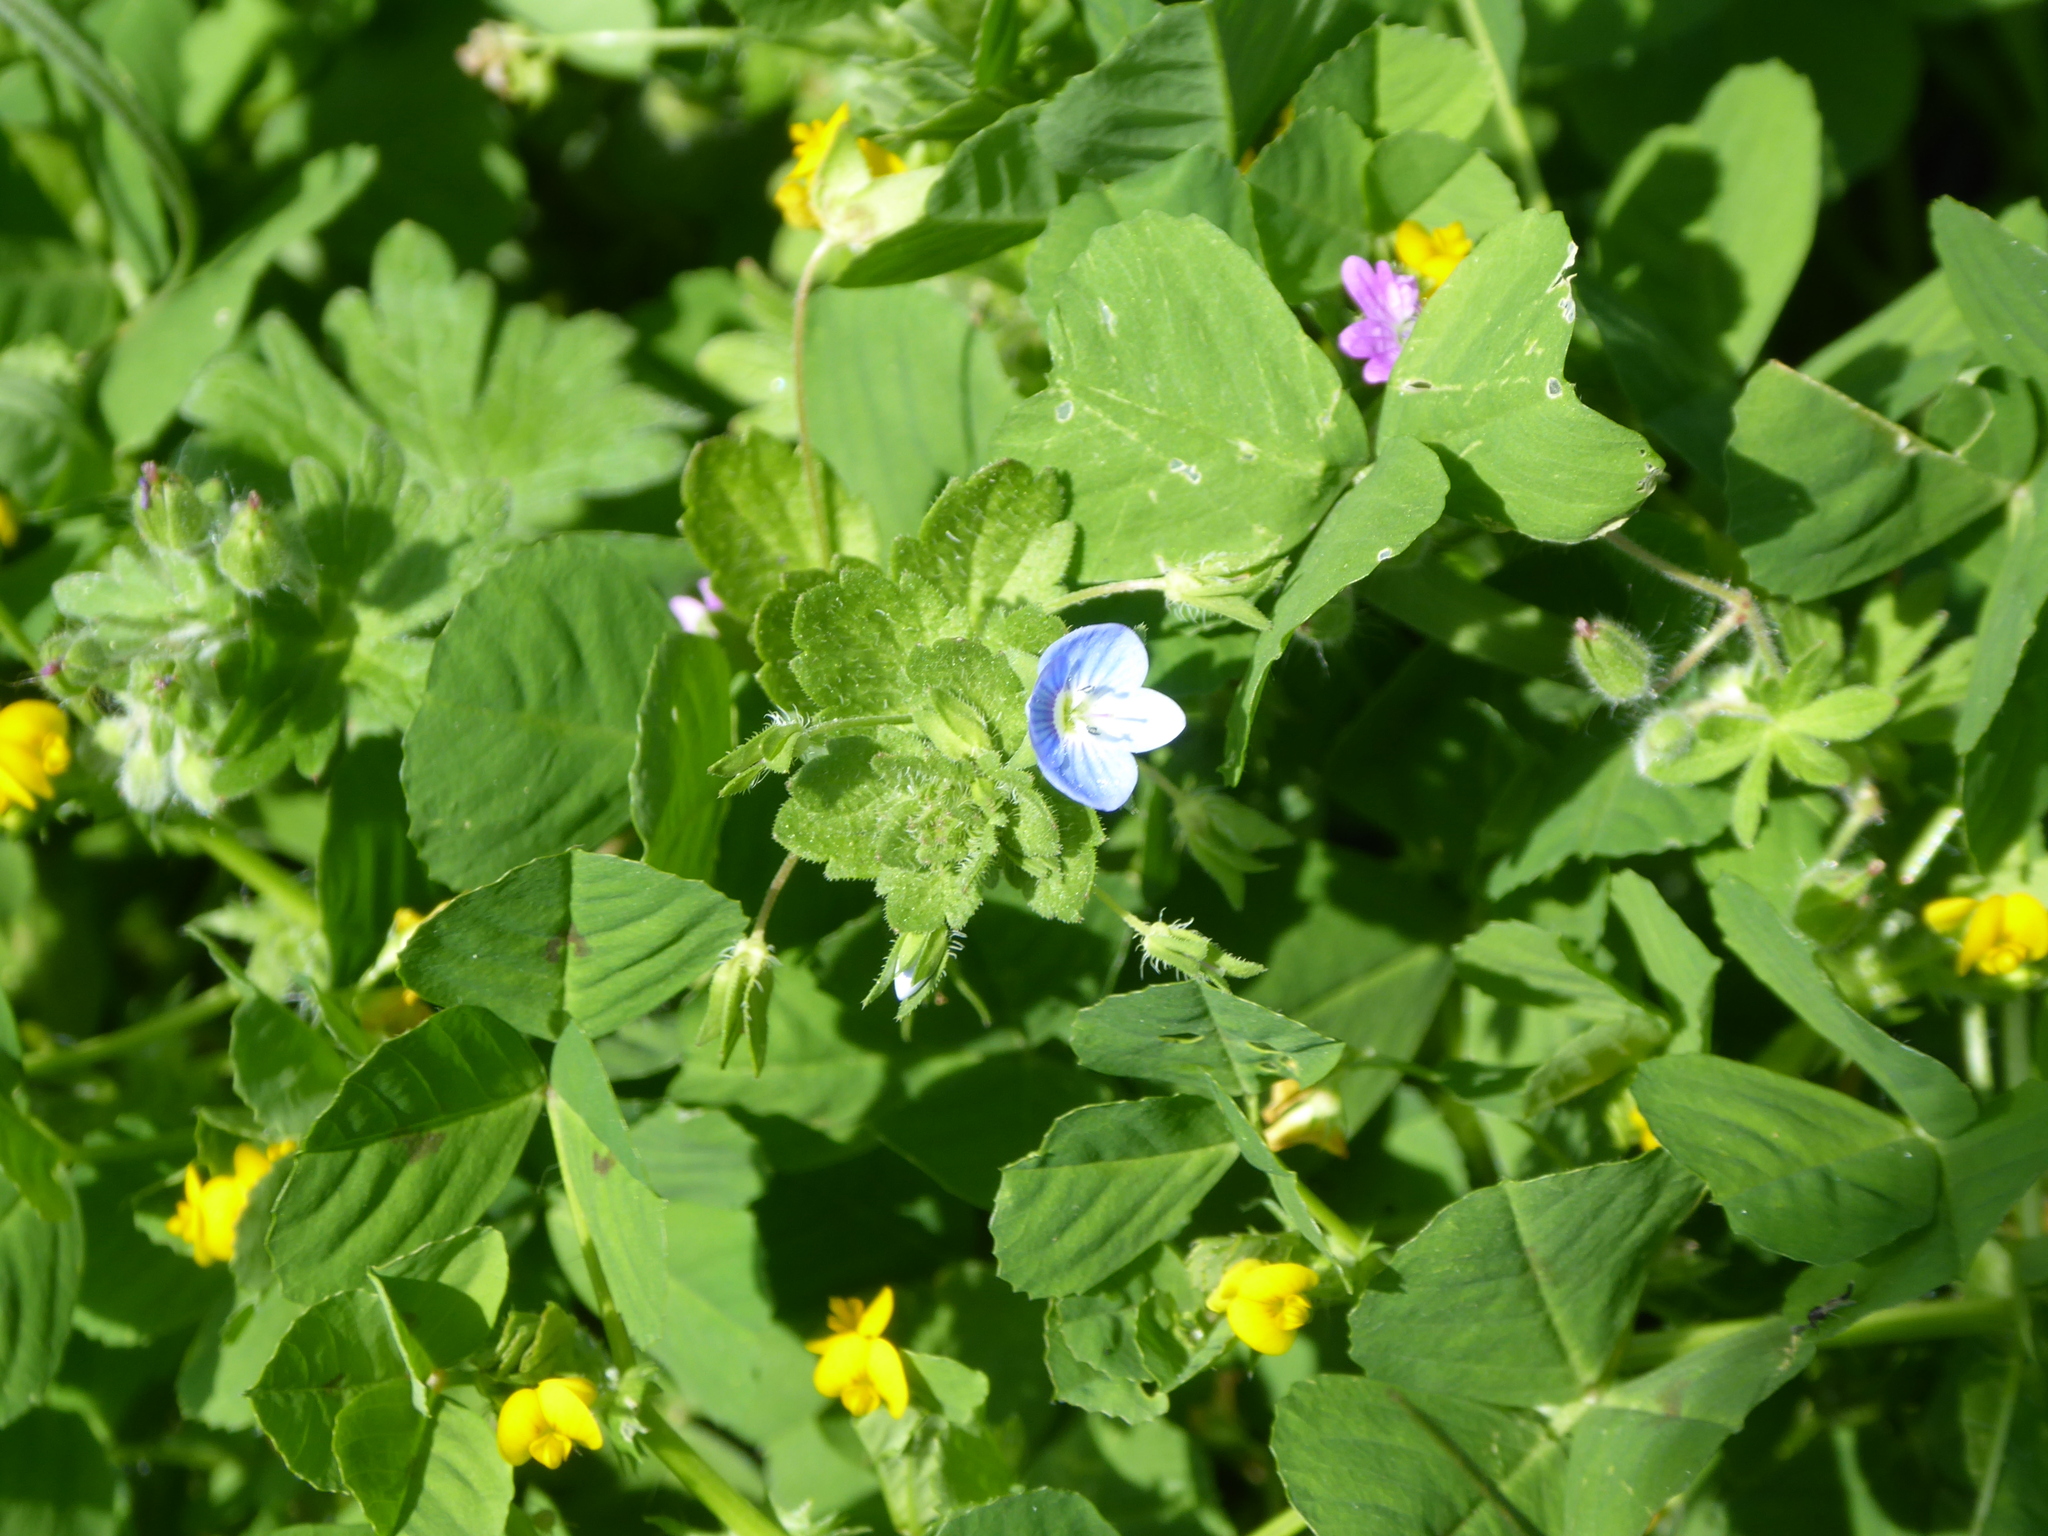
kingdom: Plantae
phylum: Tracheophyta
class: Magnoliopsida
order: Lamiales
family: Plantaginaceae
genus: Veronica
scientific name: Veronica persica
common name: Common field-speedwell
